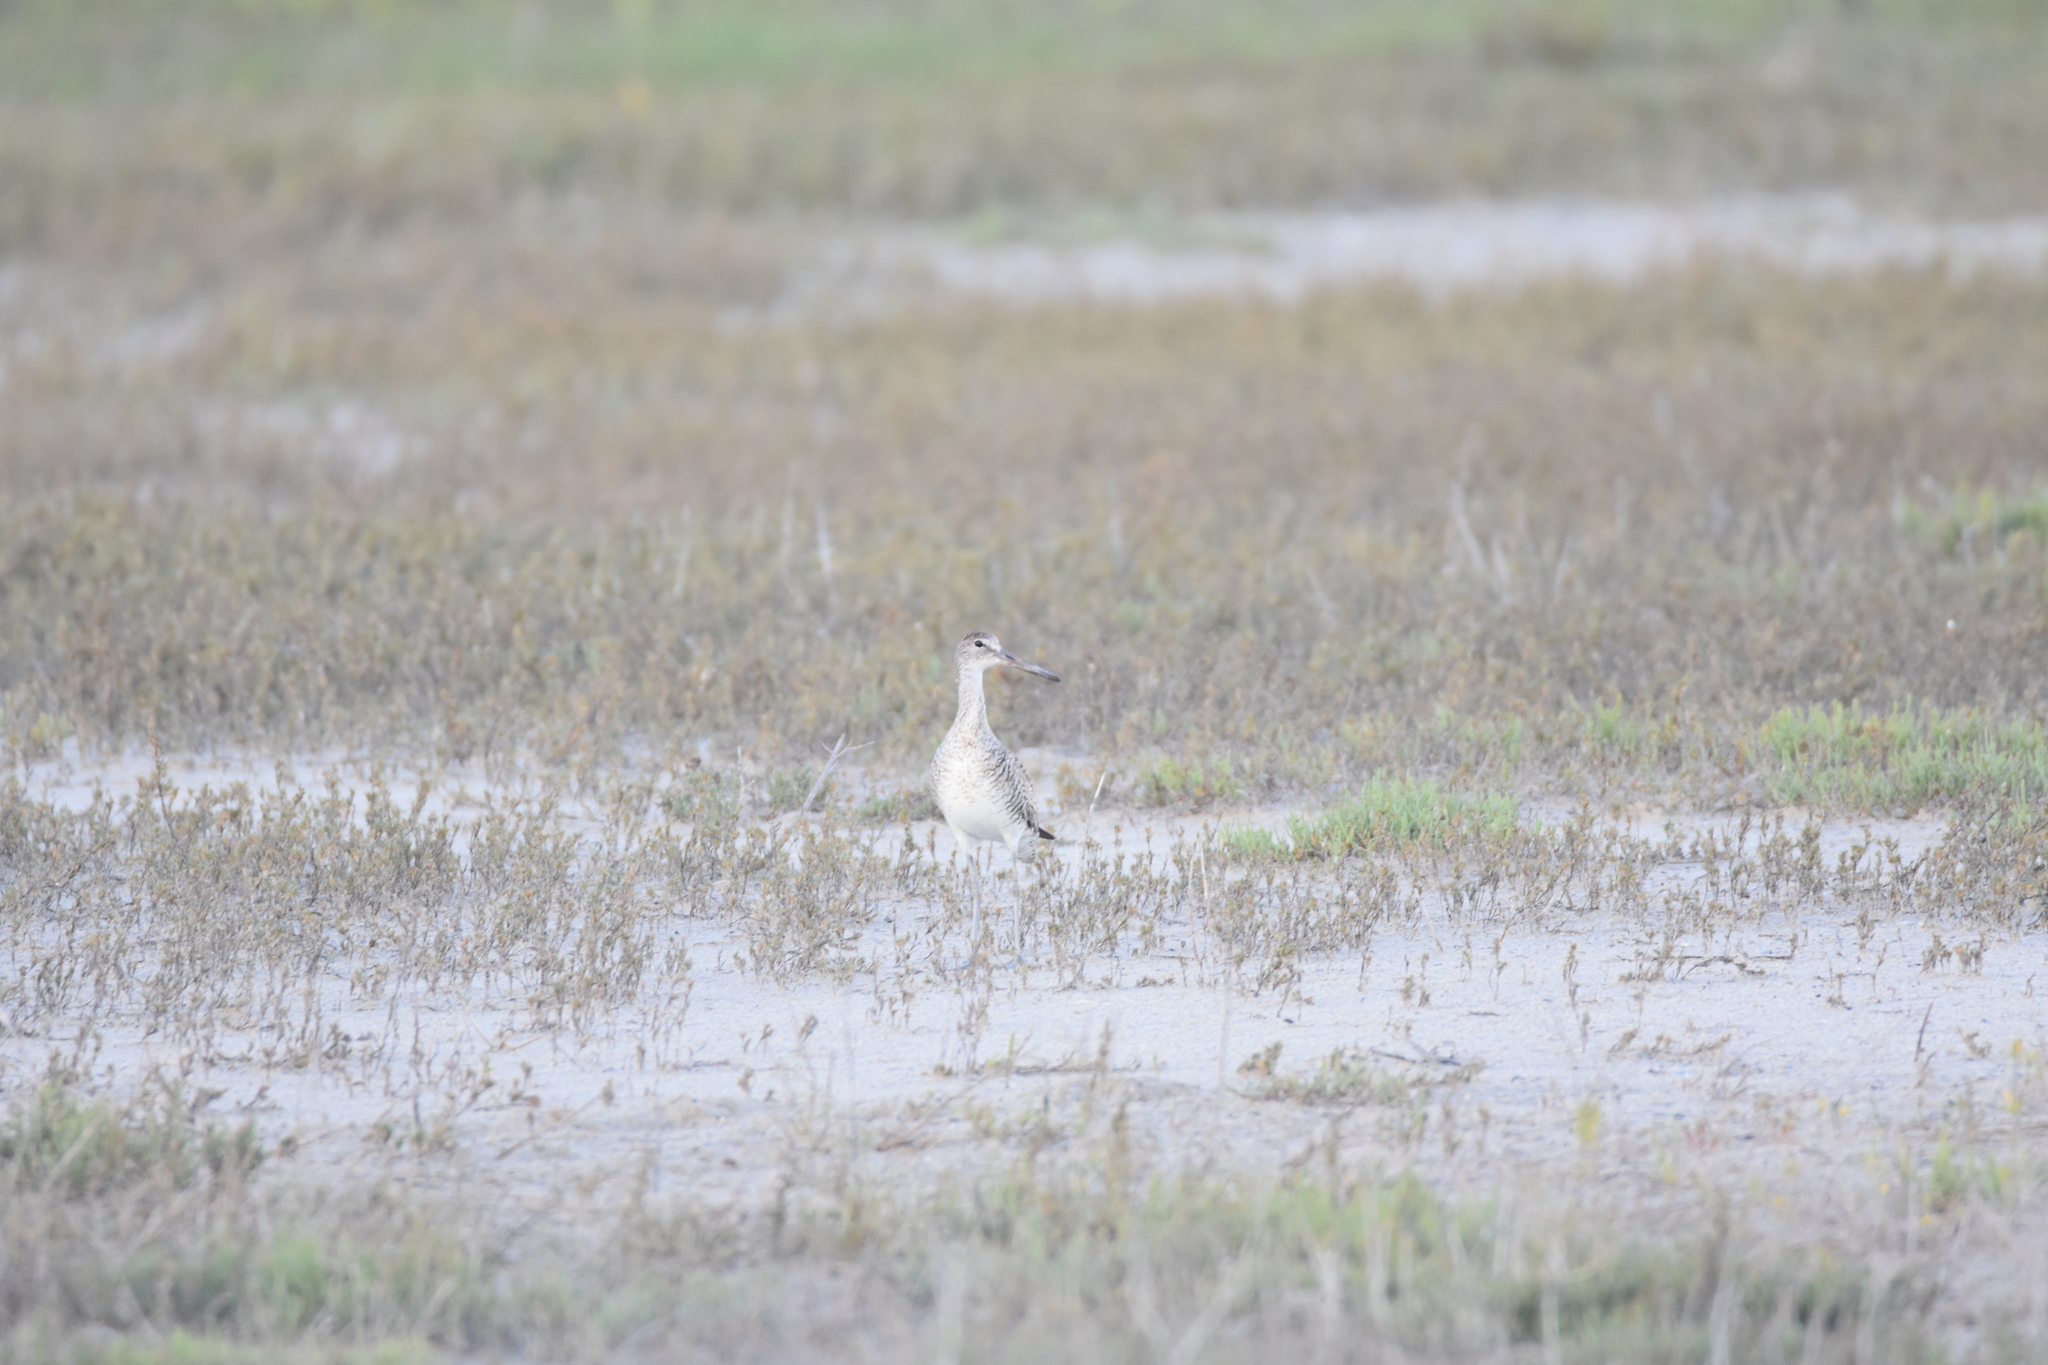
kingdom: Animalia
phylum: Chordata
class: Aves
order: Charadriiformes
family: Scolopacidae
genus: Tringa
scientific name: Tringa semipalmata
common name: Willet
